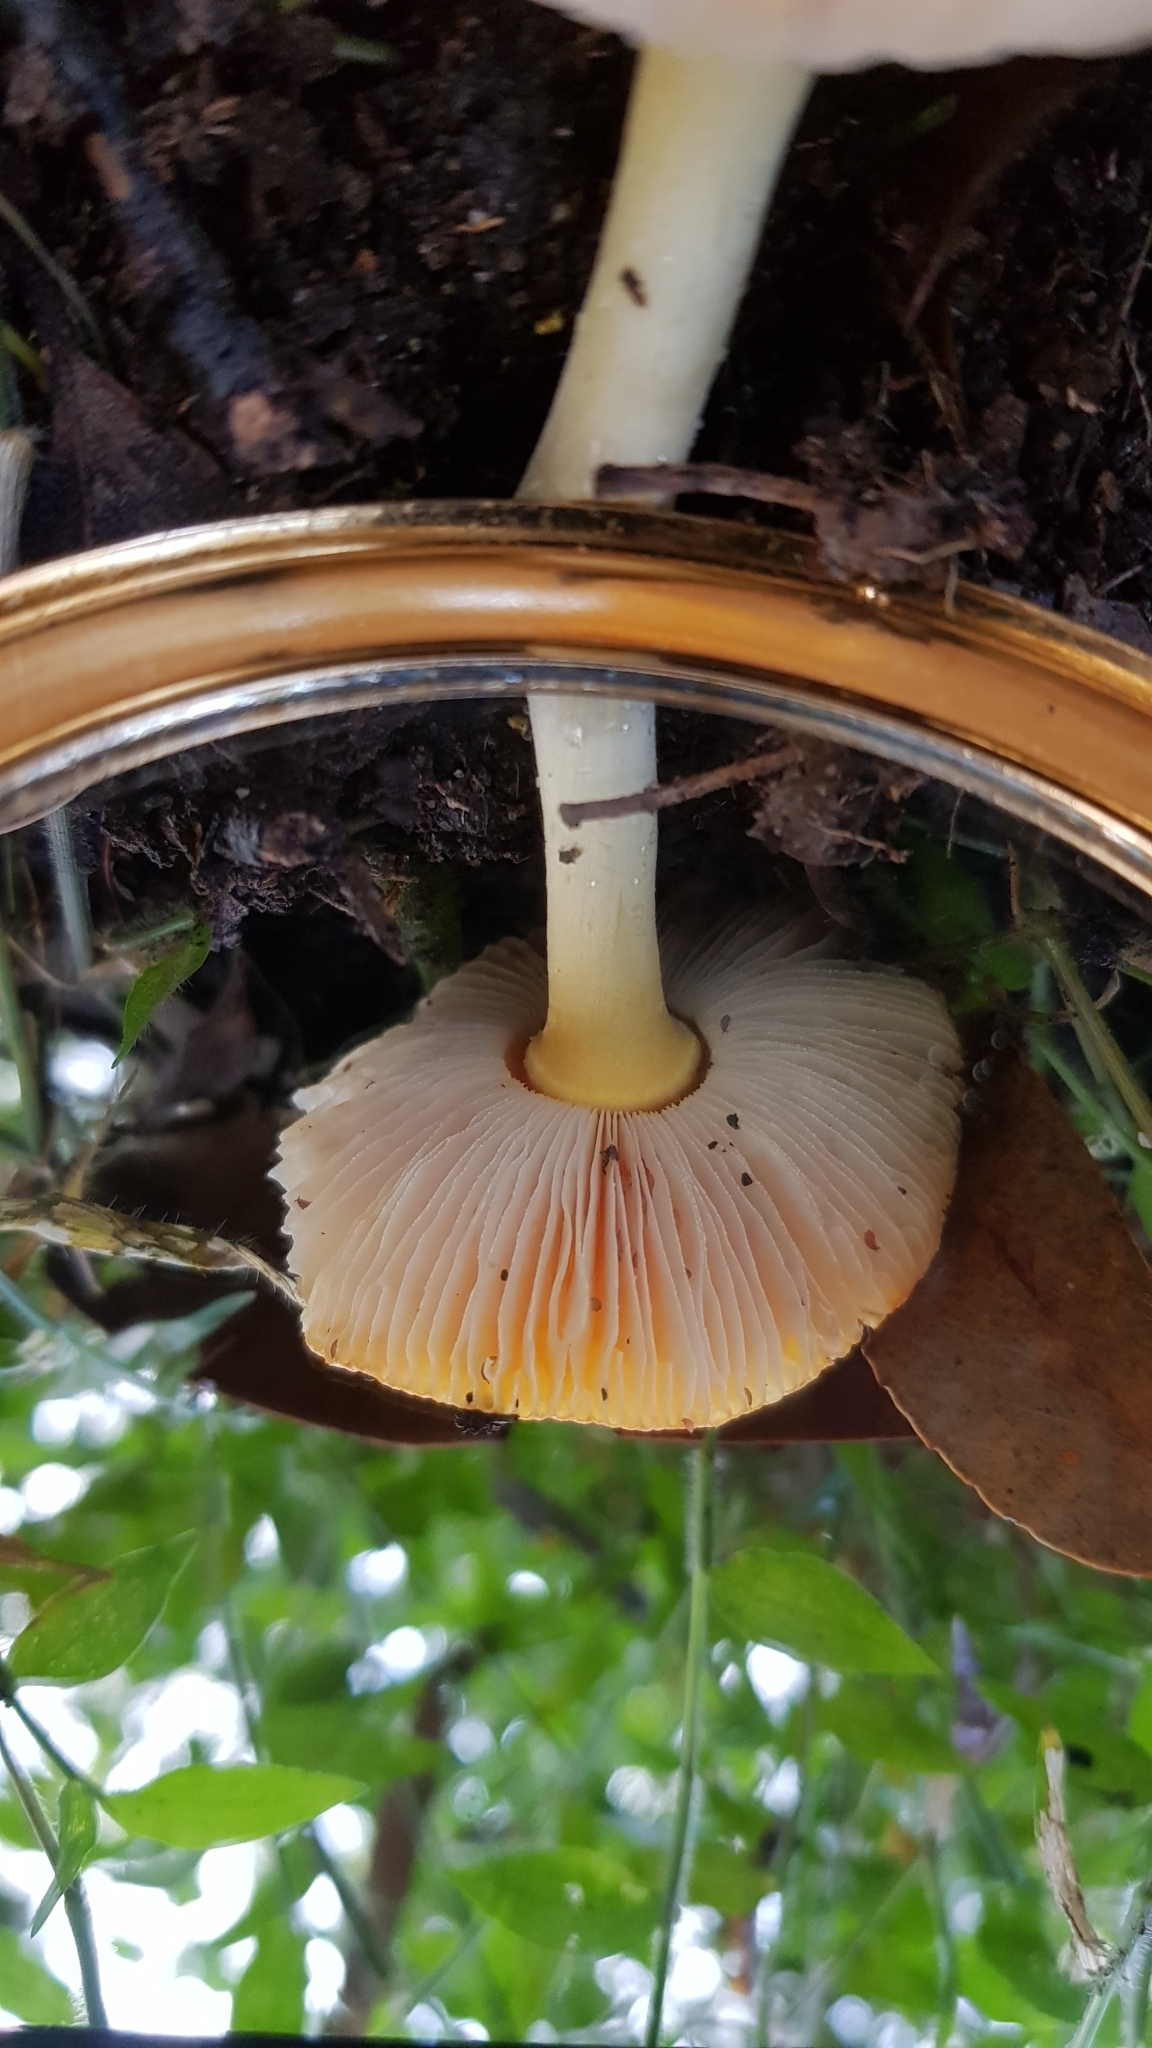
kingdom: Fungi
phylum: Basidiomycota
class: Agaricomycetes
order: Agaricales
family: Amanitaceae
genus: Amanita
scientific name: Amanita xanthocephala
